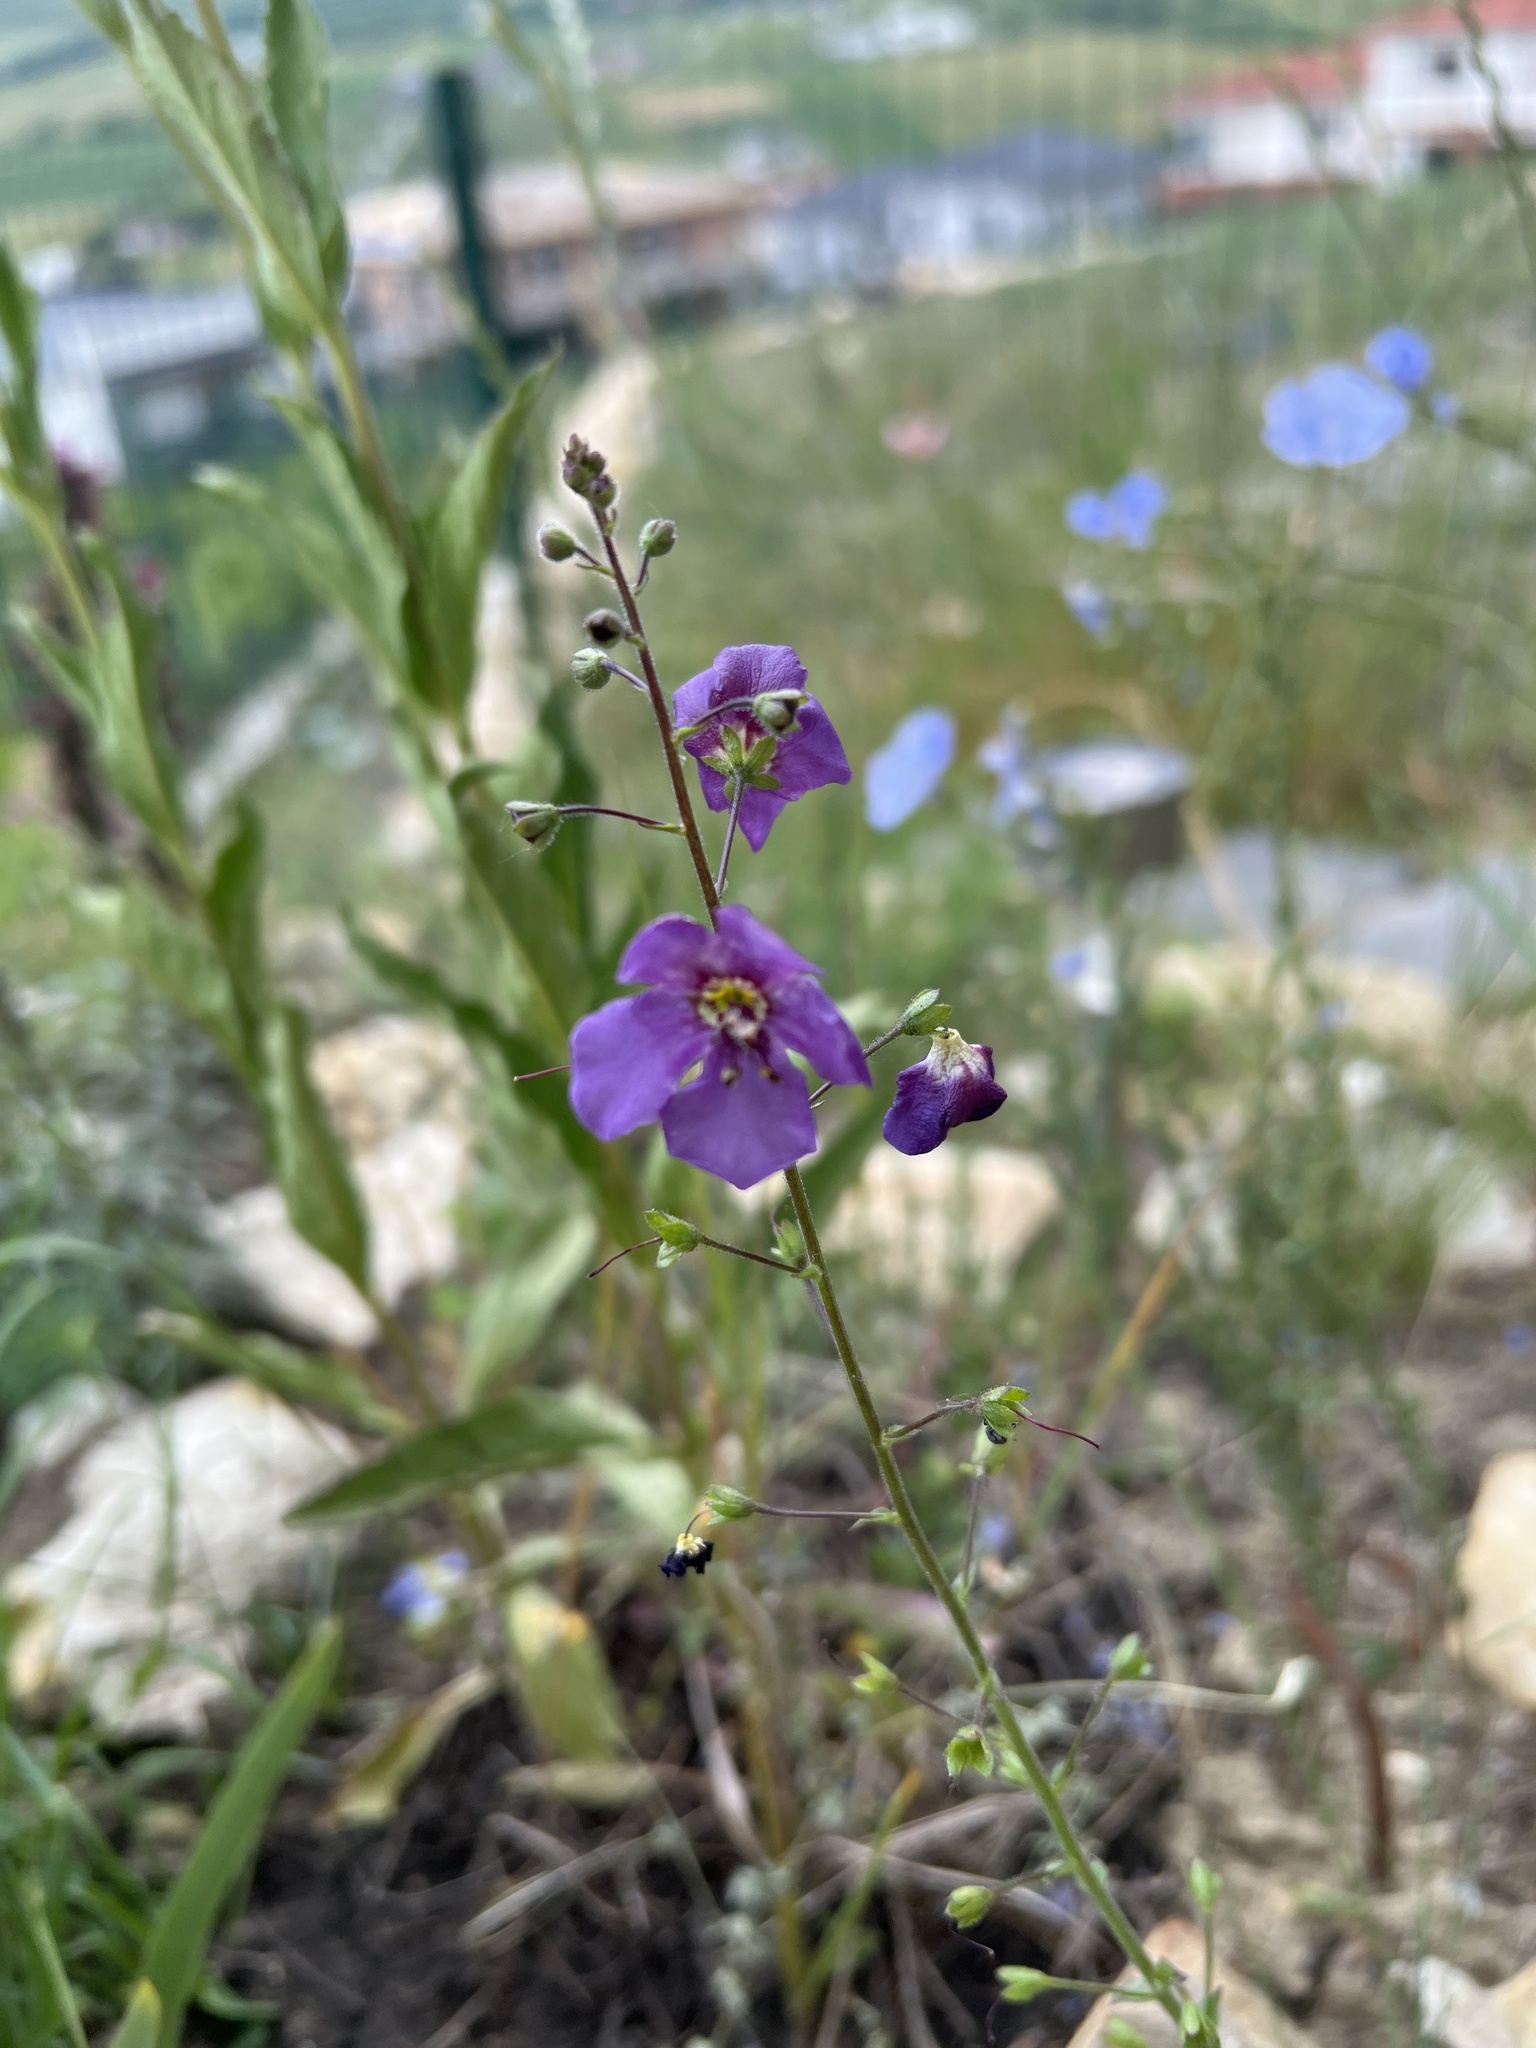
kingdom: Plantae
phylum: Tracheophyta
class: Magnoliopsida
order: Lamiales
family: Scrophulariaceae
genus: Verbascum
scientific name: Verbascum phoeniceum
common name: Purple mullein
